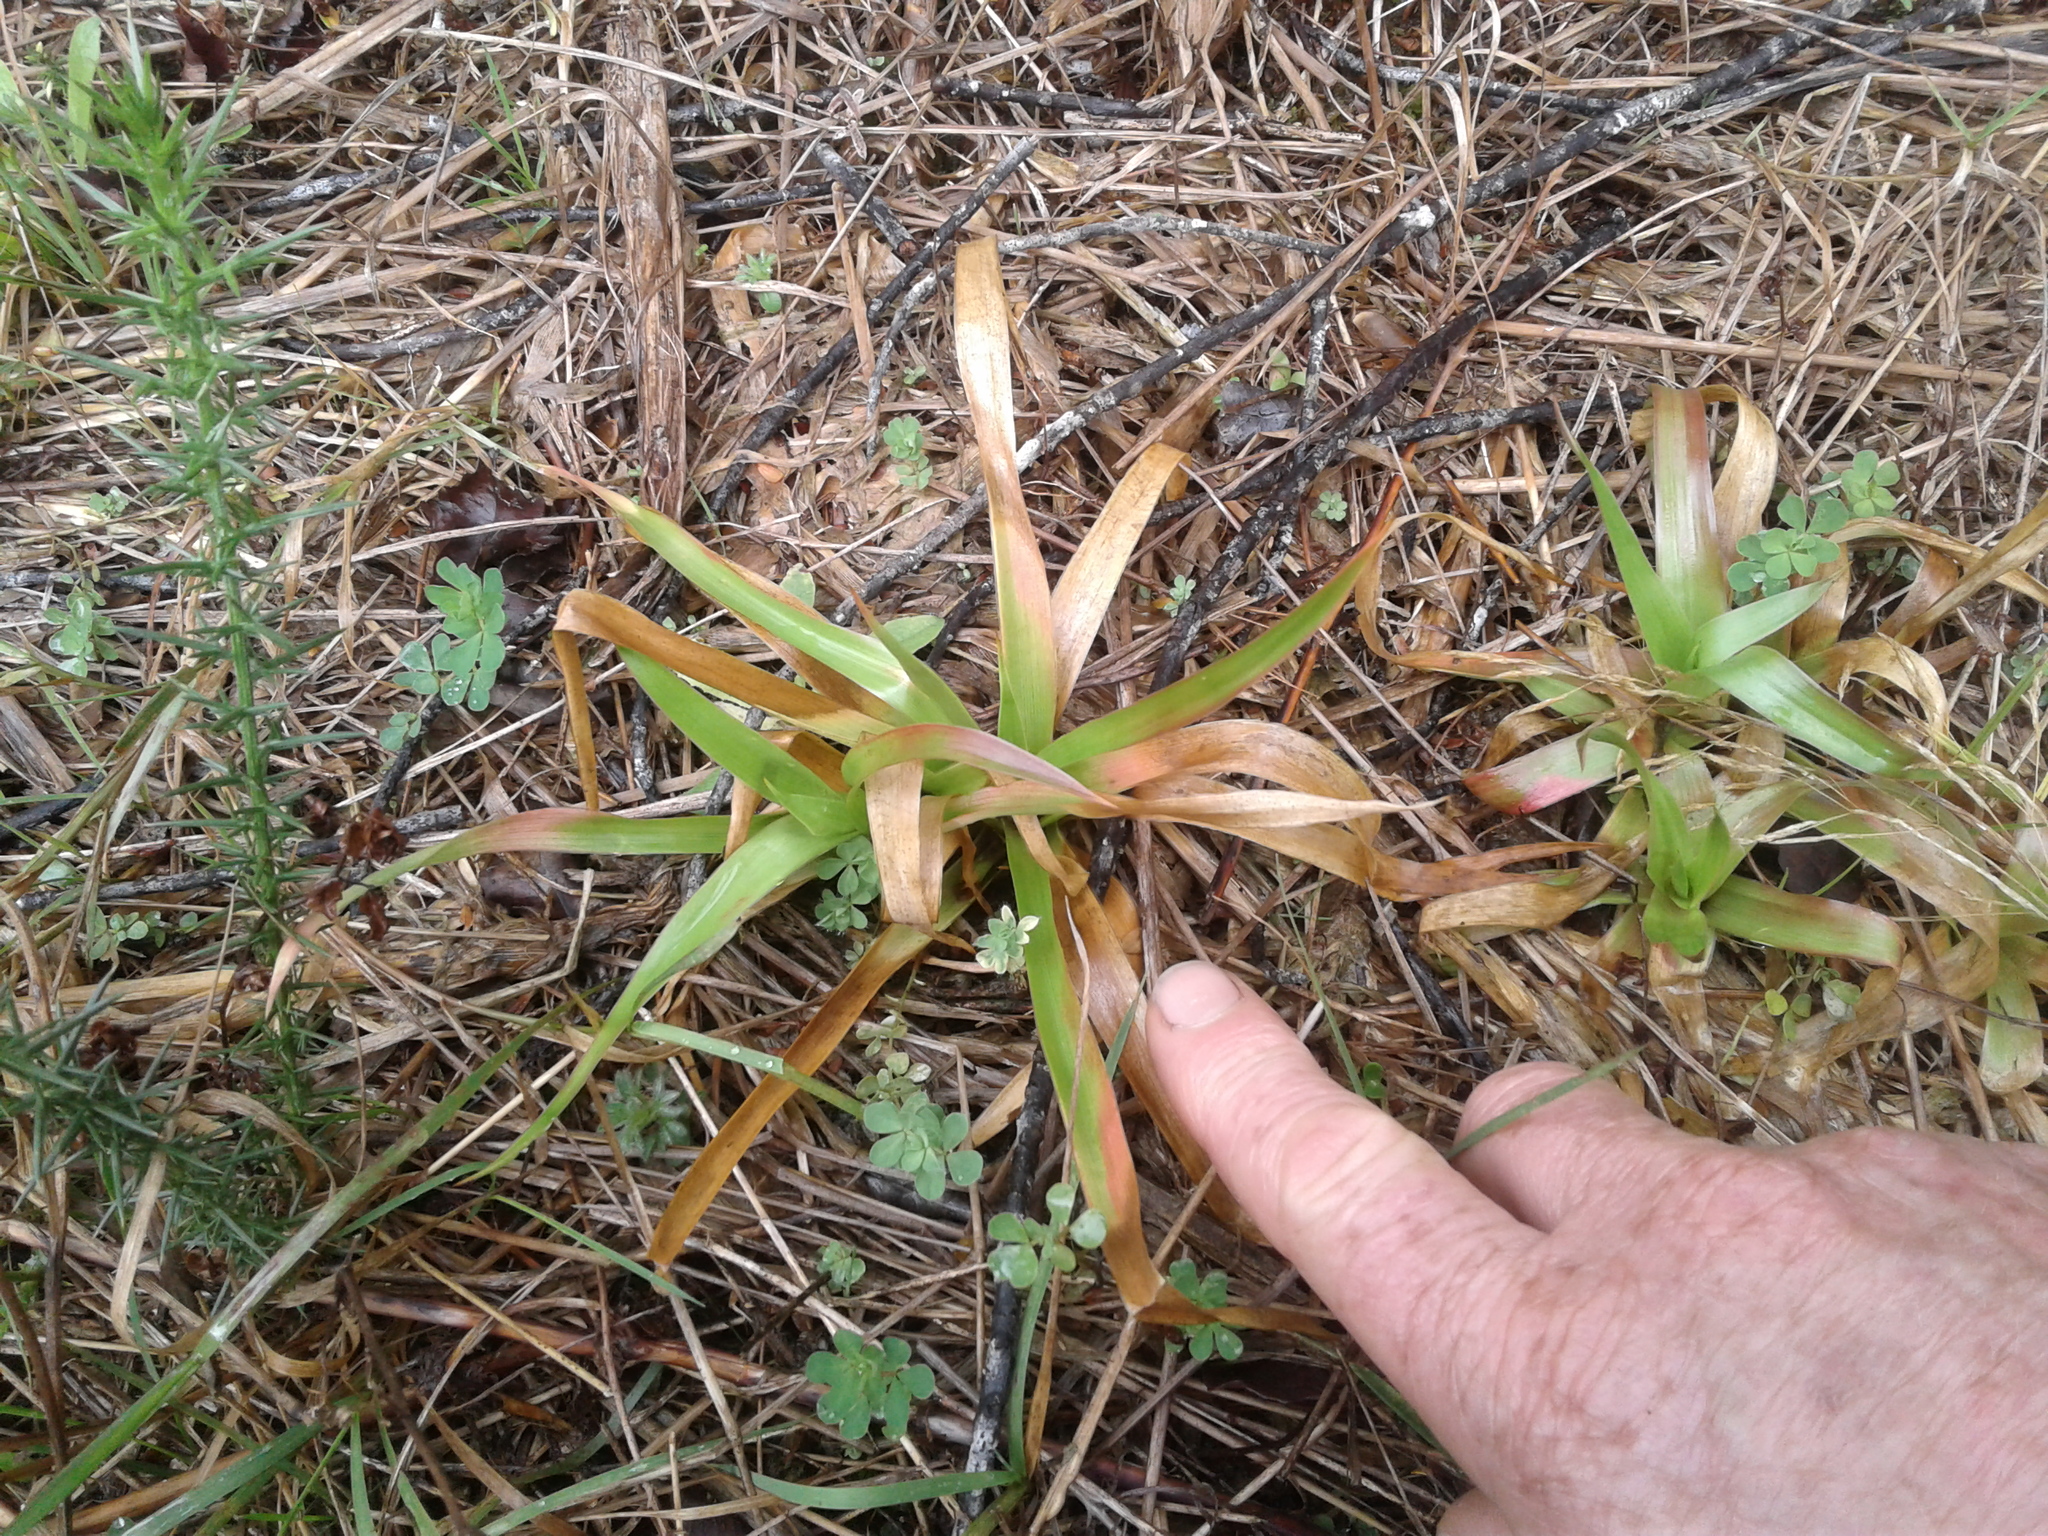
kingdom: Plantae
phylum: Tracheophyta
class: Liliopsida
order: Poales
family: Juncaceae
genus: Juncus
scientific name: Juncus lomatophyllus
